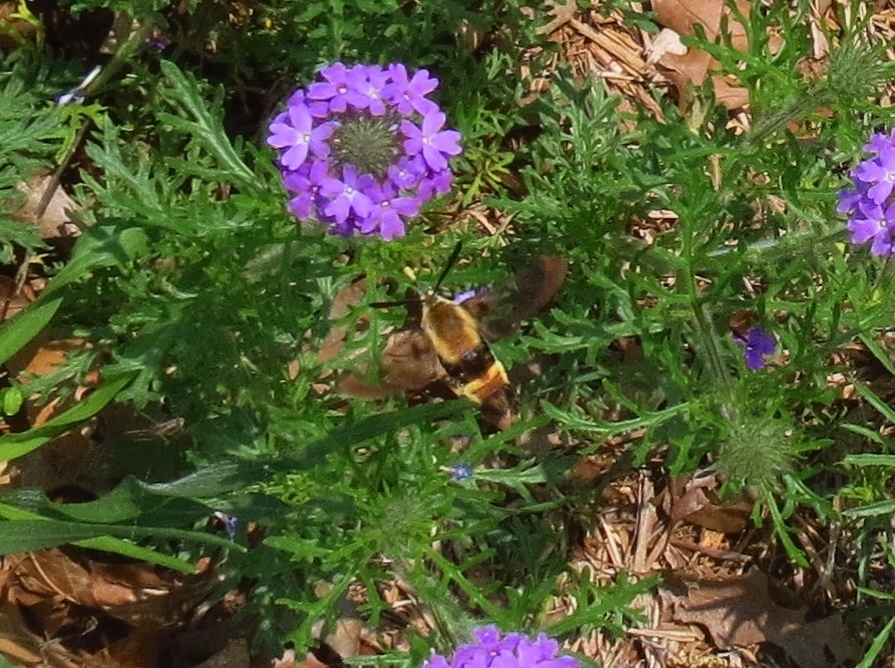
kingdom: Animalia
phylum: Arthropoda
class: Insecta
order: Lepidoptera
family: Sphingidae
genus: Hemaris
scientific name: Hemaris diffinis
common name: Bumblebee moth
